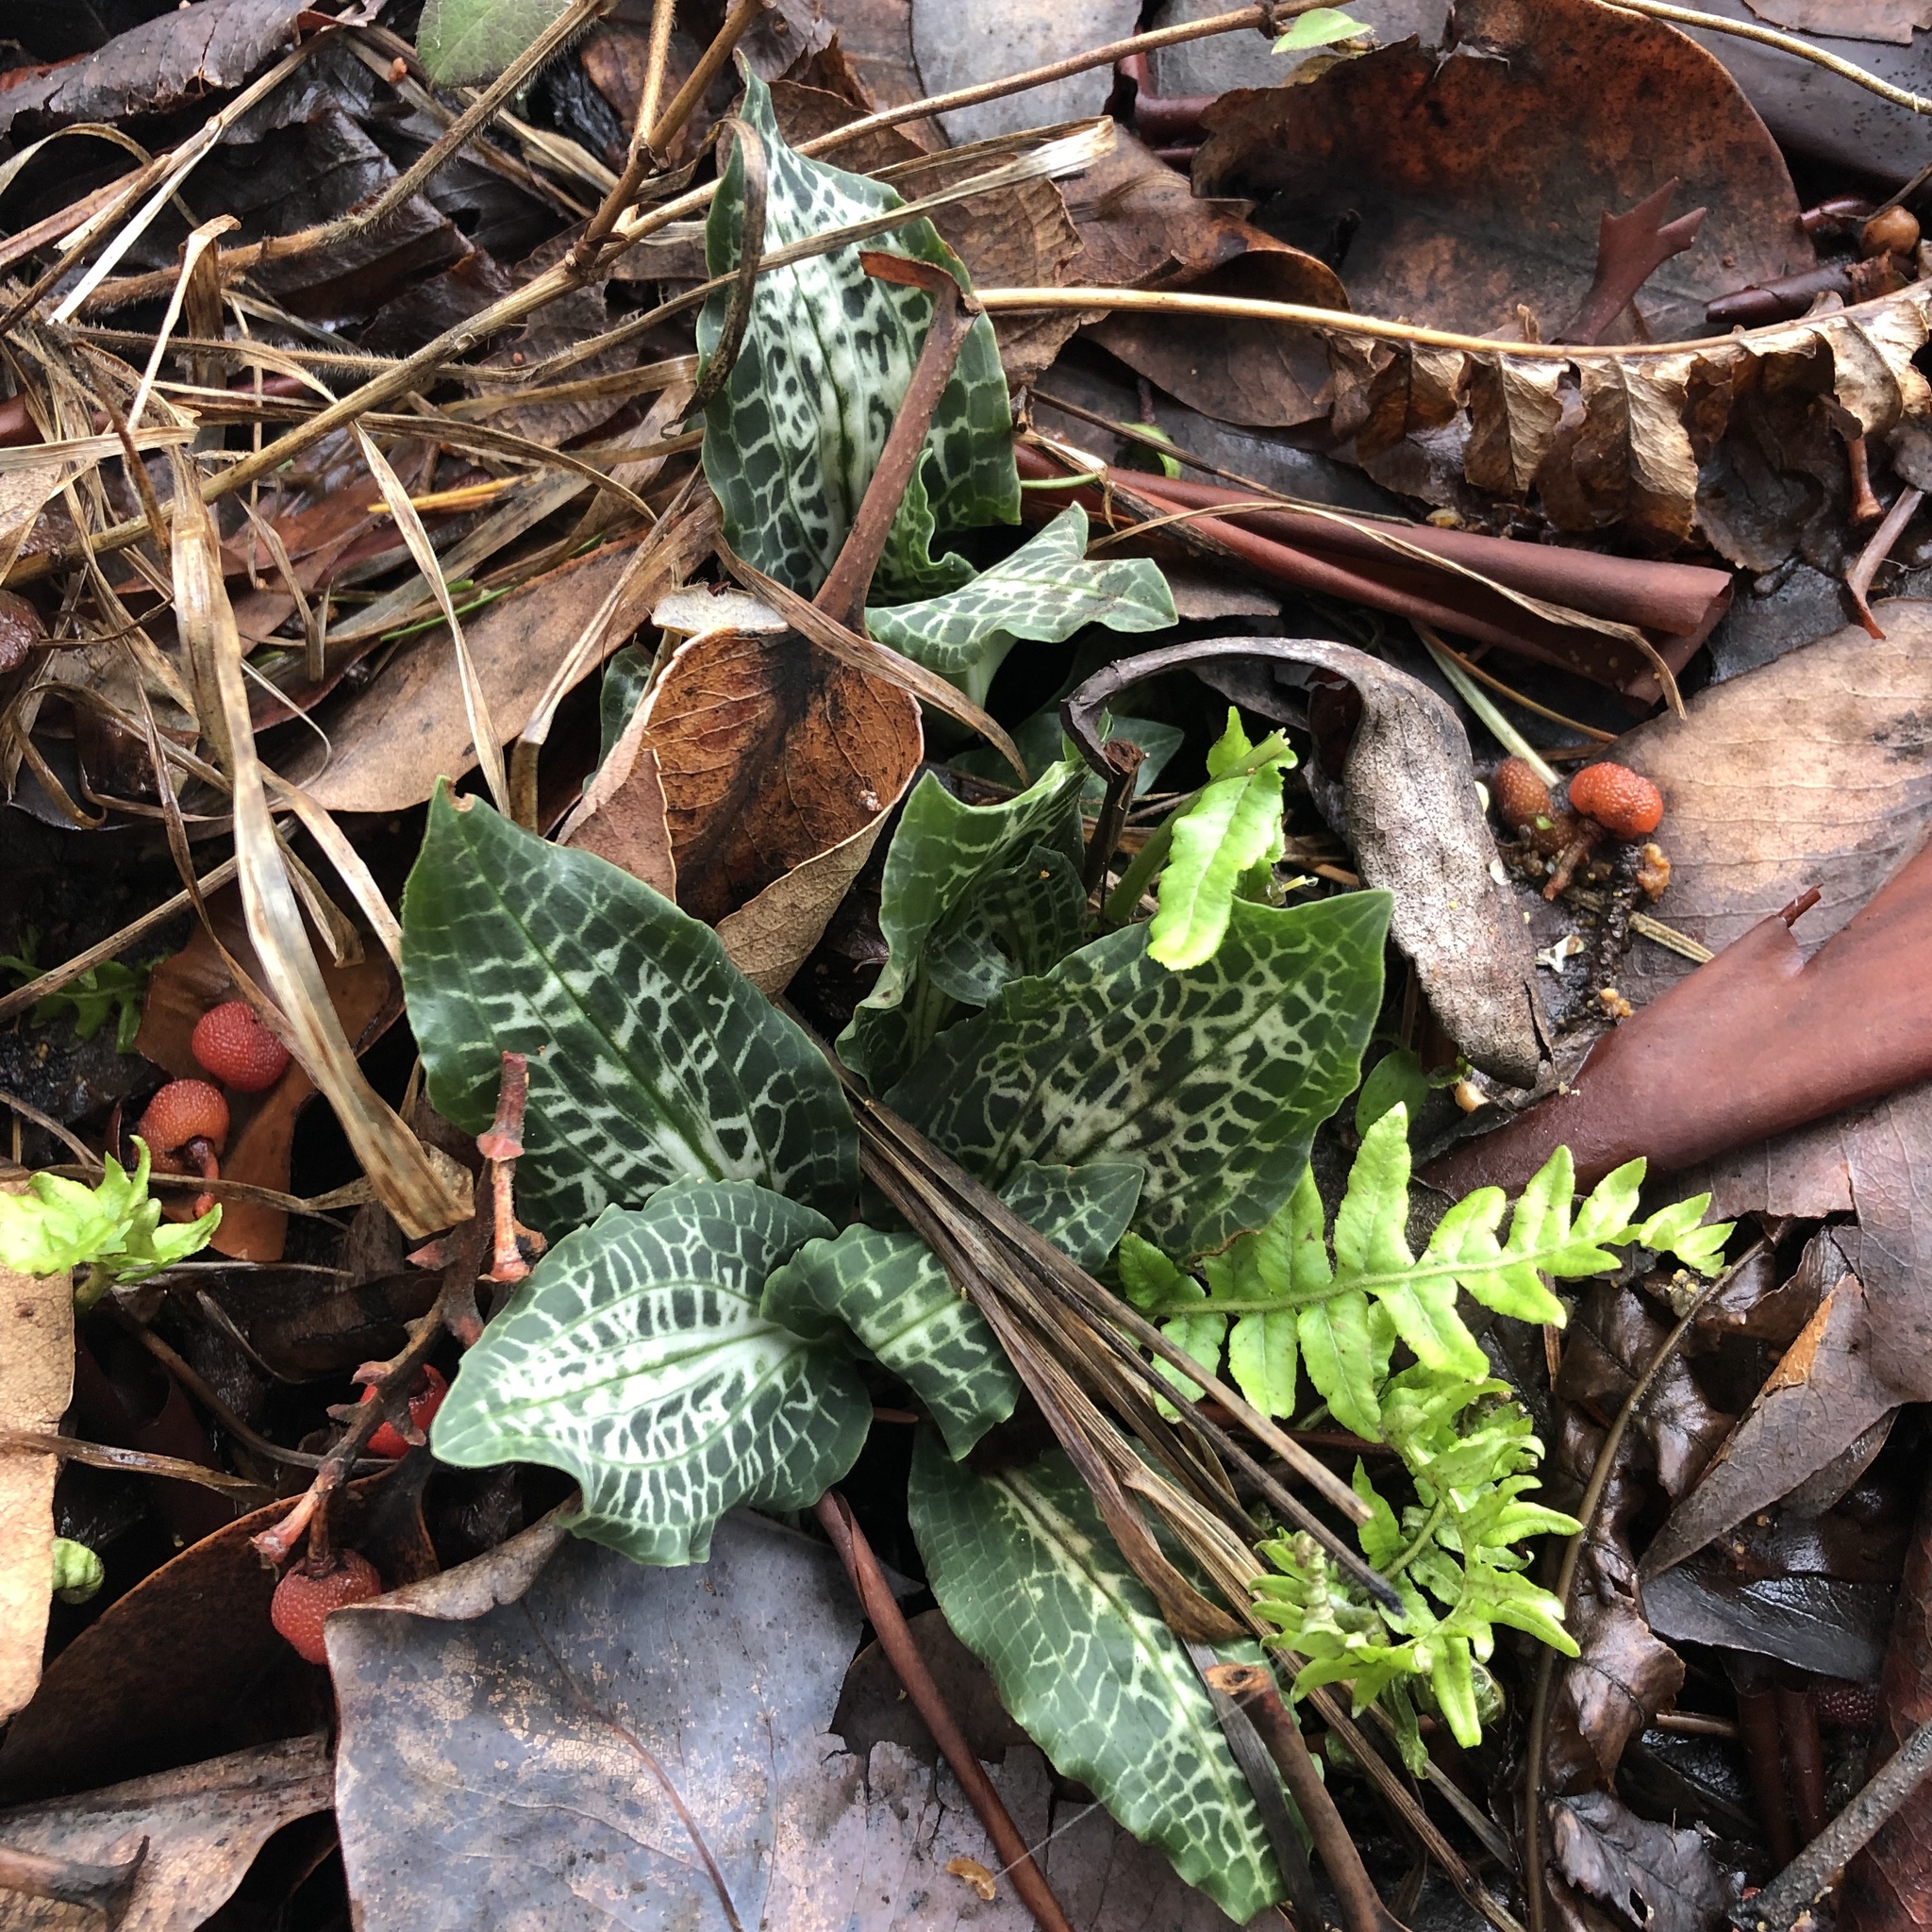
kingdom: Plantae
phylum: Tracheophyta
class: Liliopsida
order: Asparagales
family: Orchidaceae
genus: Goodyera
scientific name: Goodyera oblongifolia
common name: Giant rattlesnake-plantain
